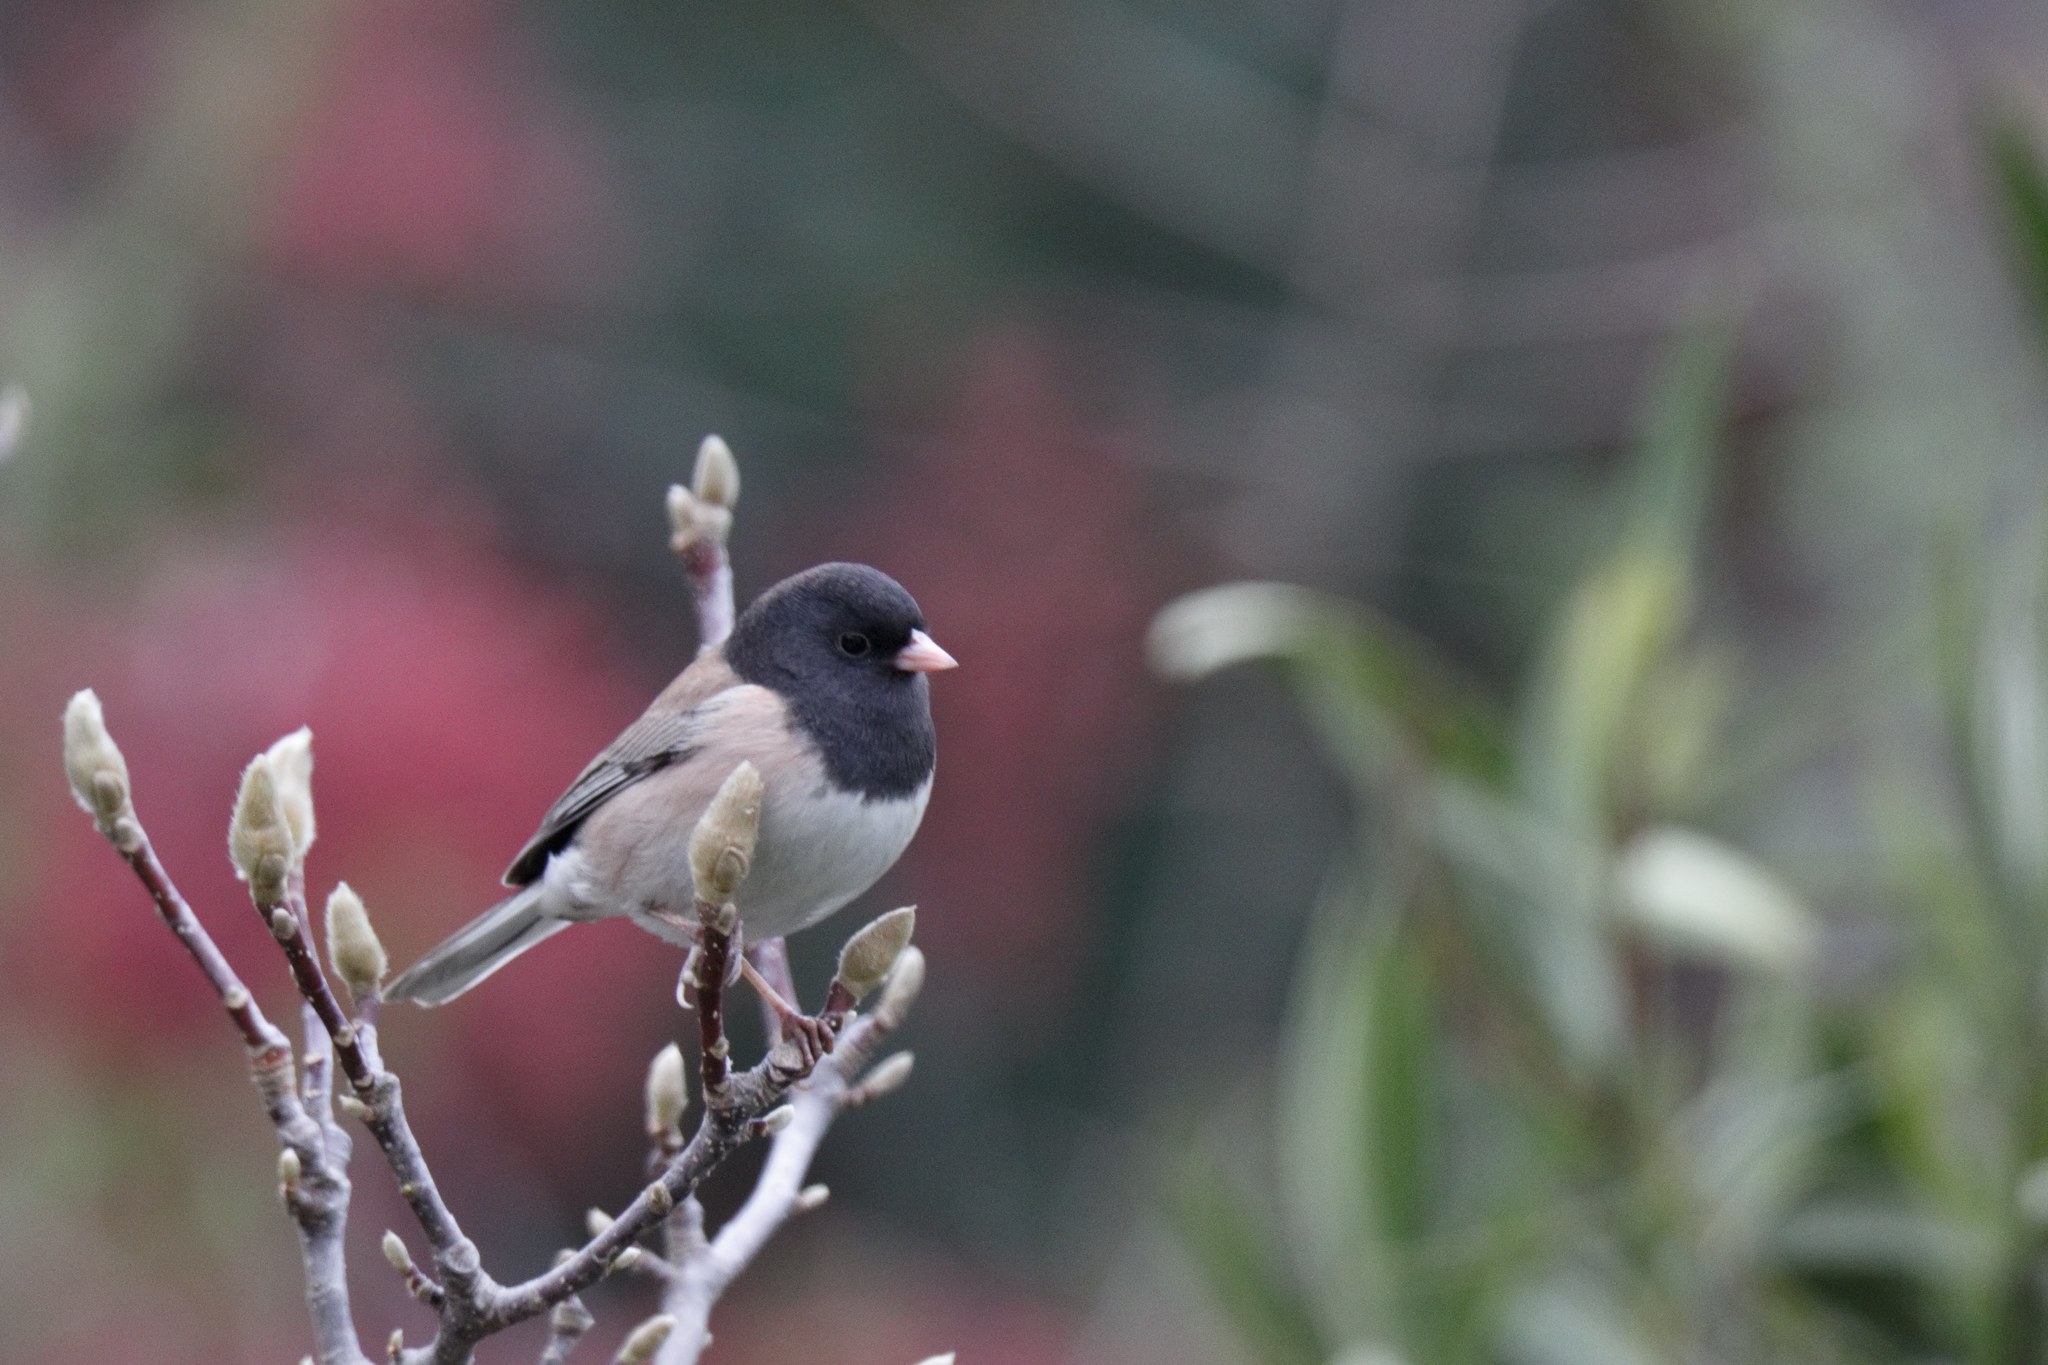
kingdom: Animalia
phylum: Chordata
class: Aves
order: Passeriformes
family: Passerellidae
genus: Junco
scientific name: Junco hyemalis
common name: Dark-eyed junco
